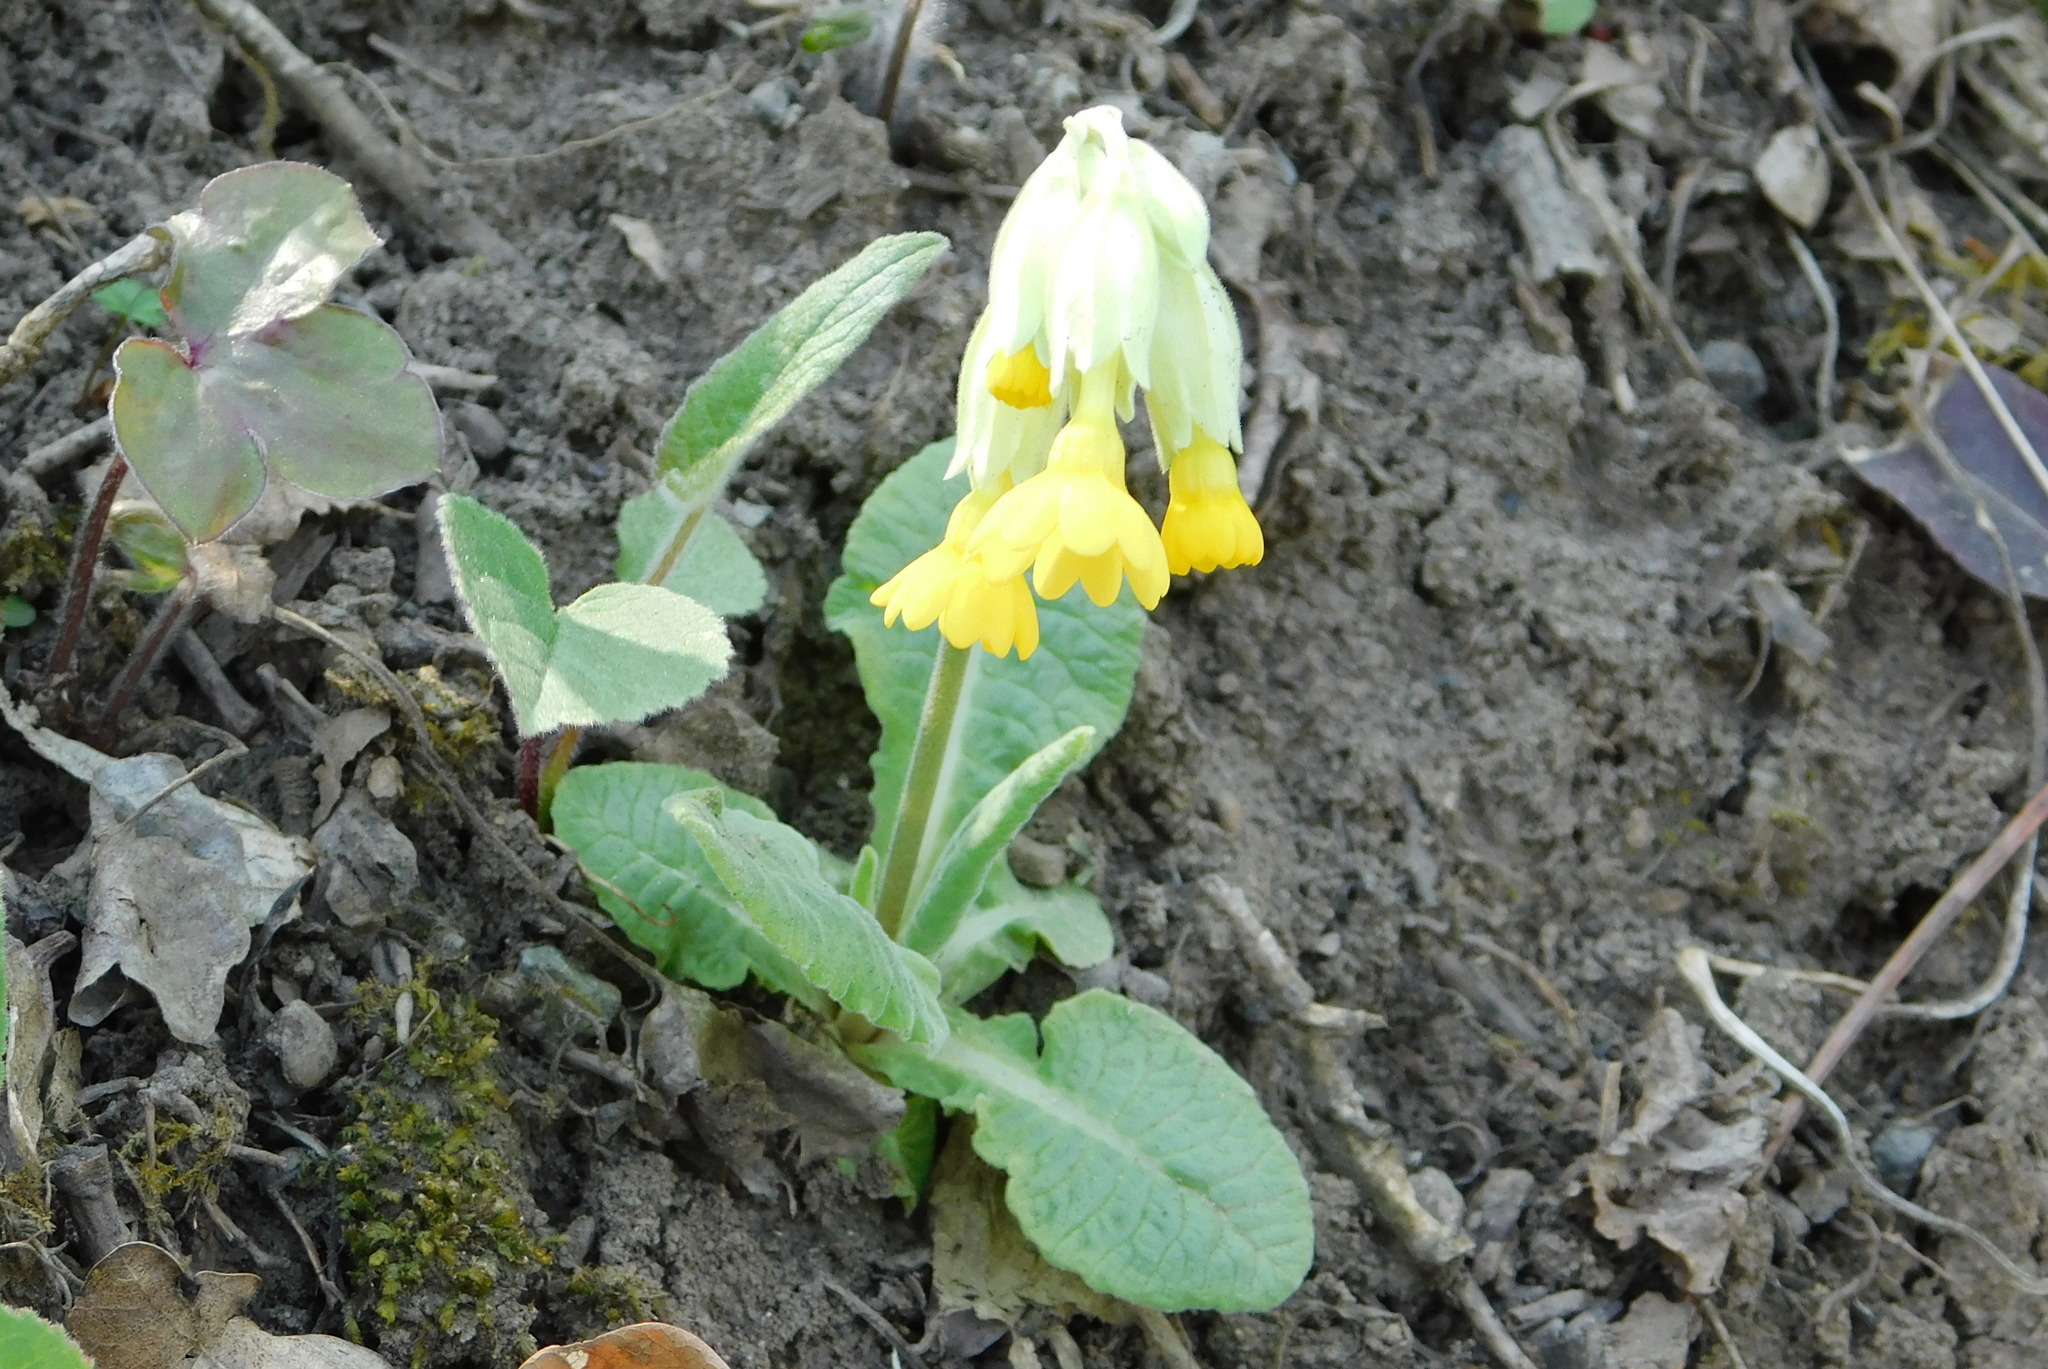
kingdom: Plantae
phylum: Tracheophyta
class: Magnoliopsida
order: Ericales
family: Primulaceae
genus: Primula
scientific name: Primula veris
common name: Cowslip
